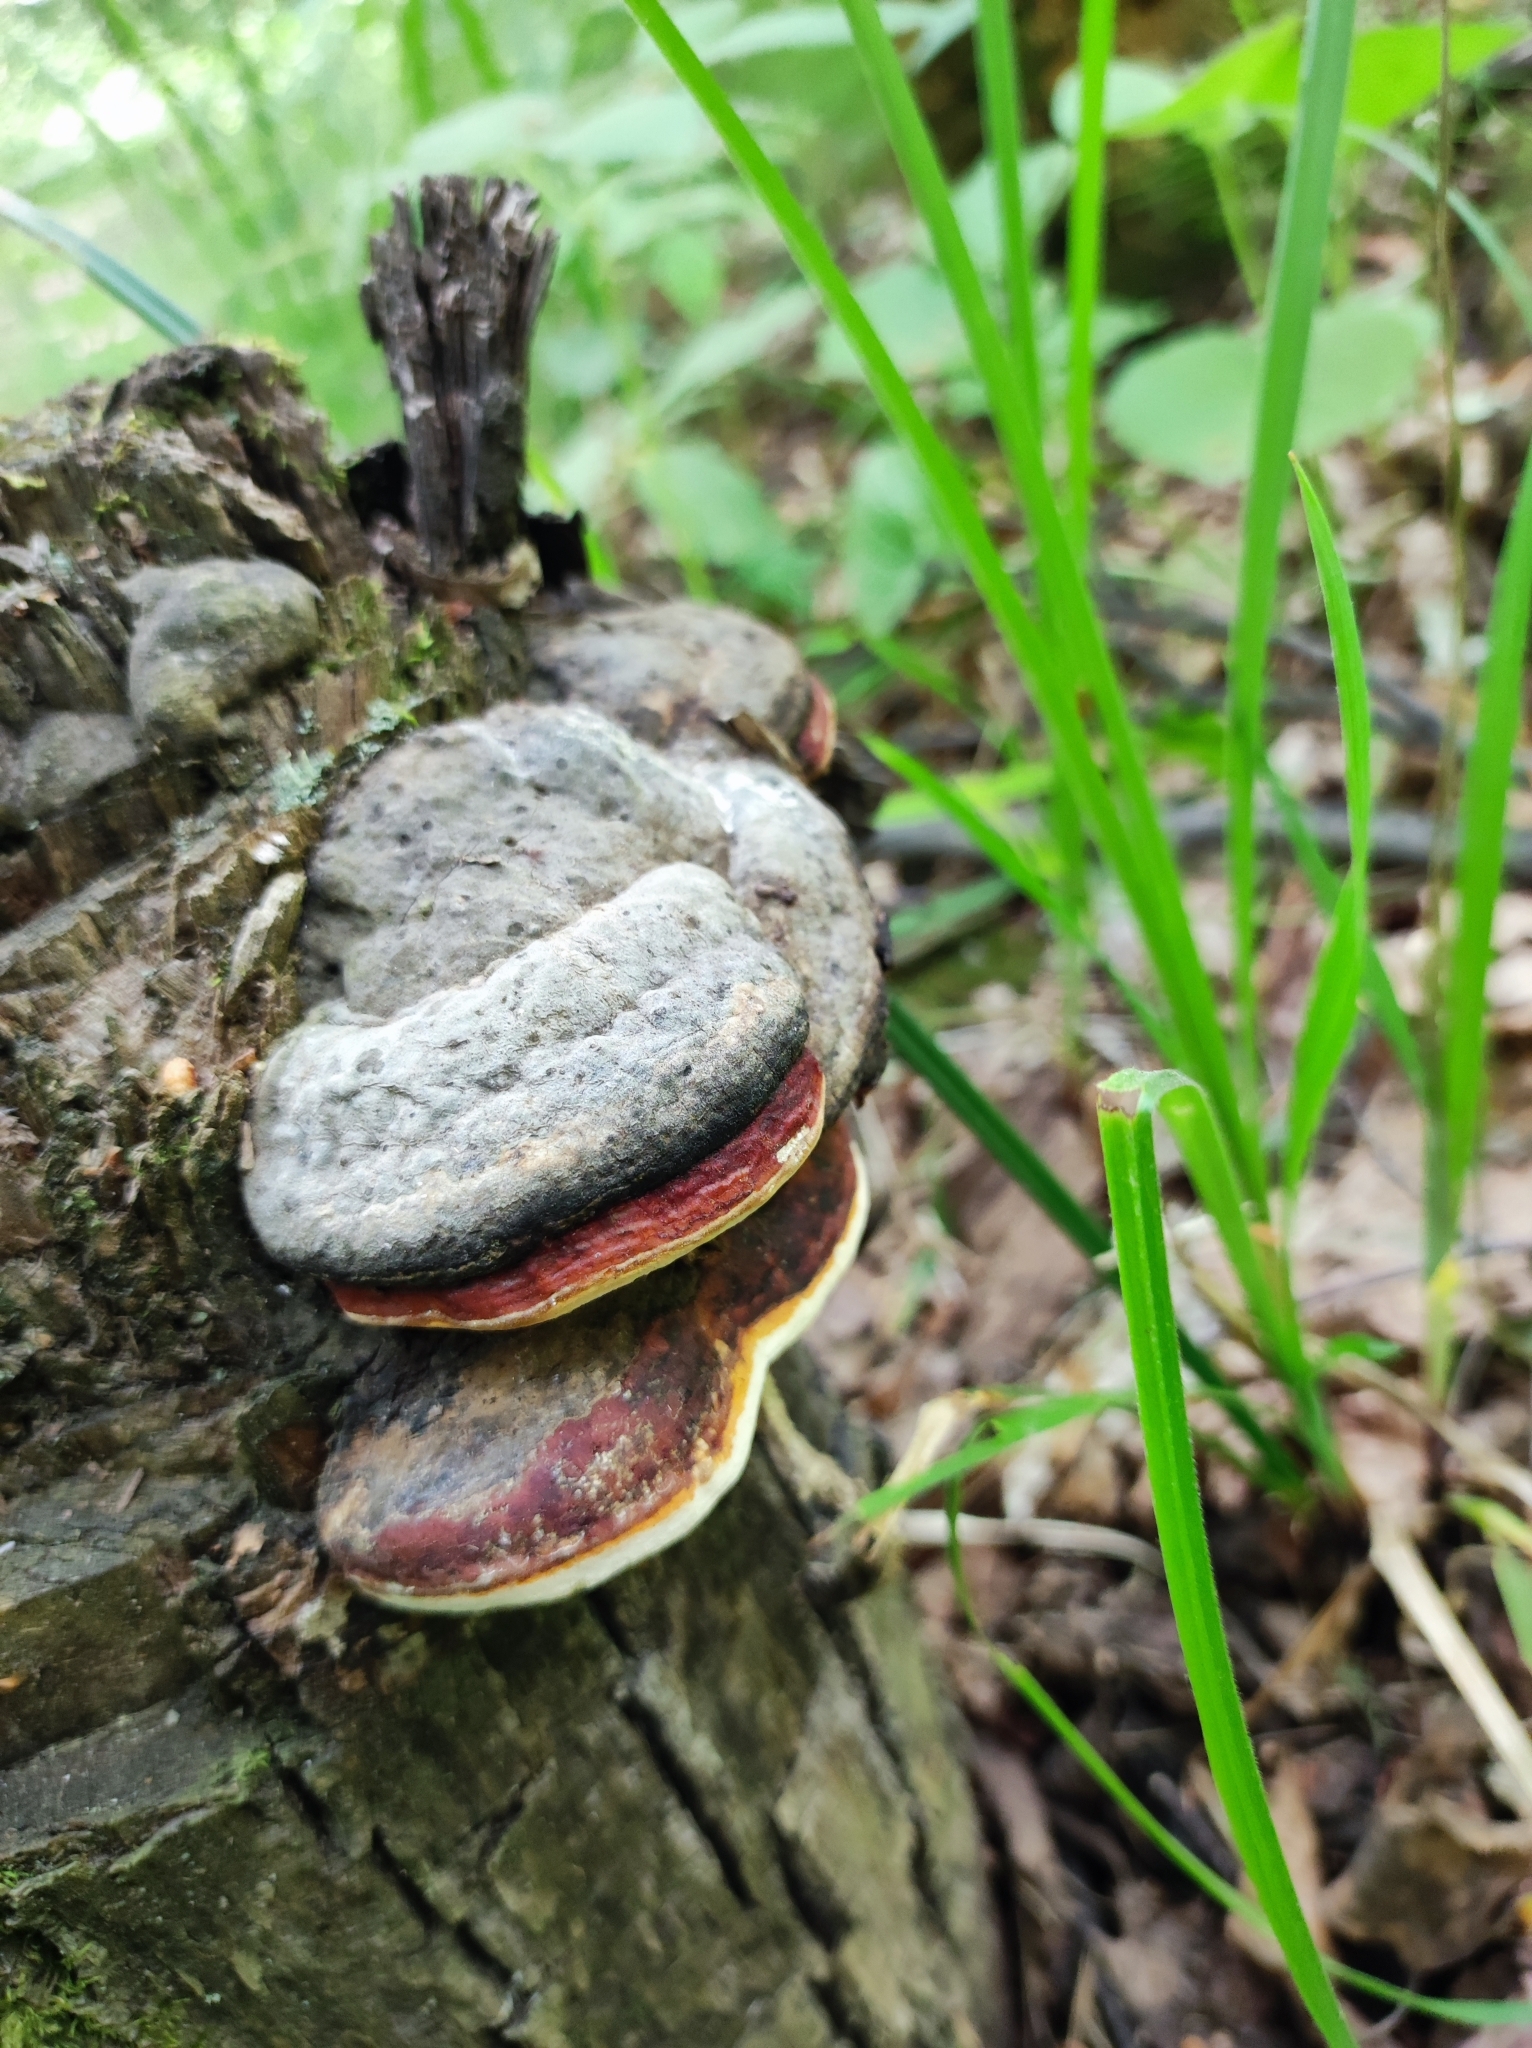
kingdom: Fungi
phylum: Basidiomycota
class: Agaricomycetes
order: Polyporales
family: Fomitopsidaceae
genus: Fomitopsis
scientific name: Fomitopsis pinicola
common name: Red-belted bracket
